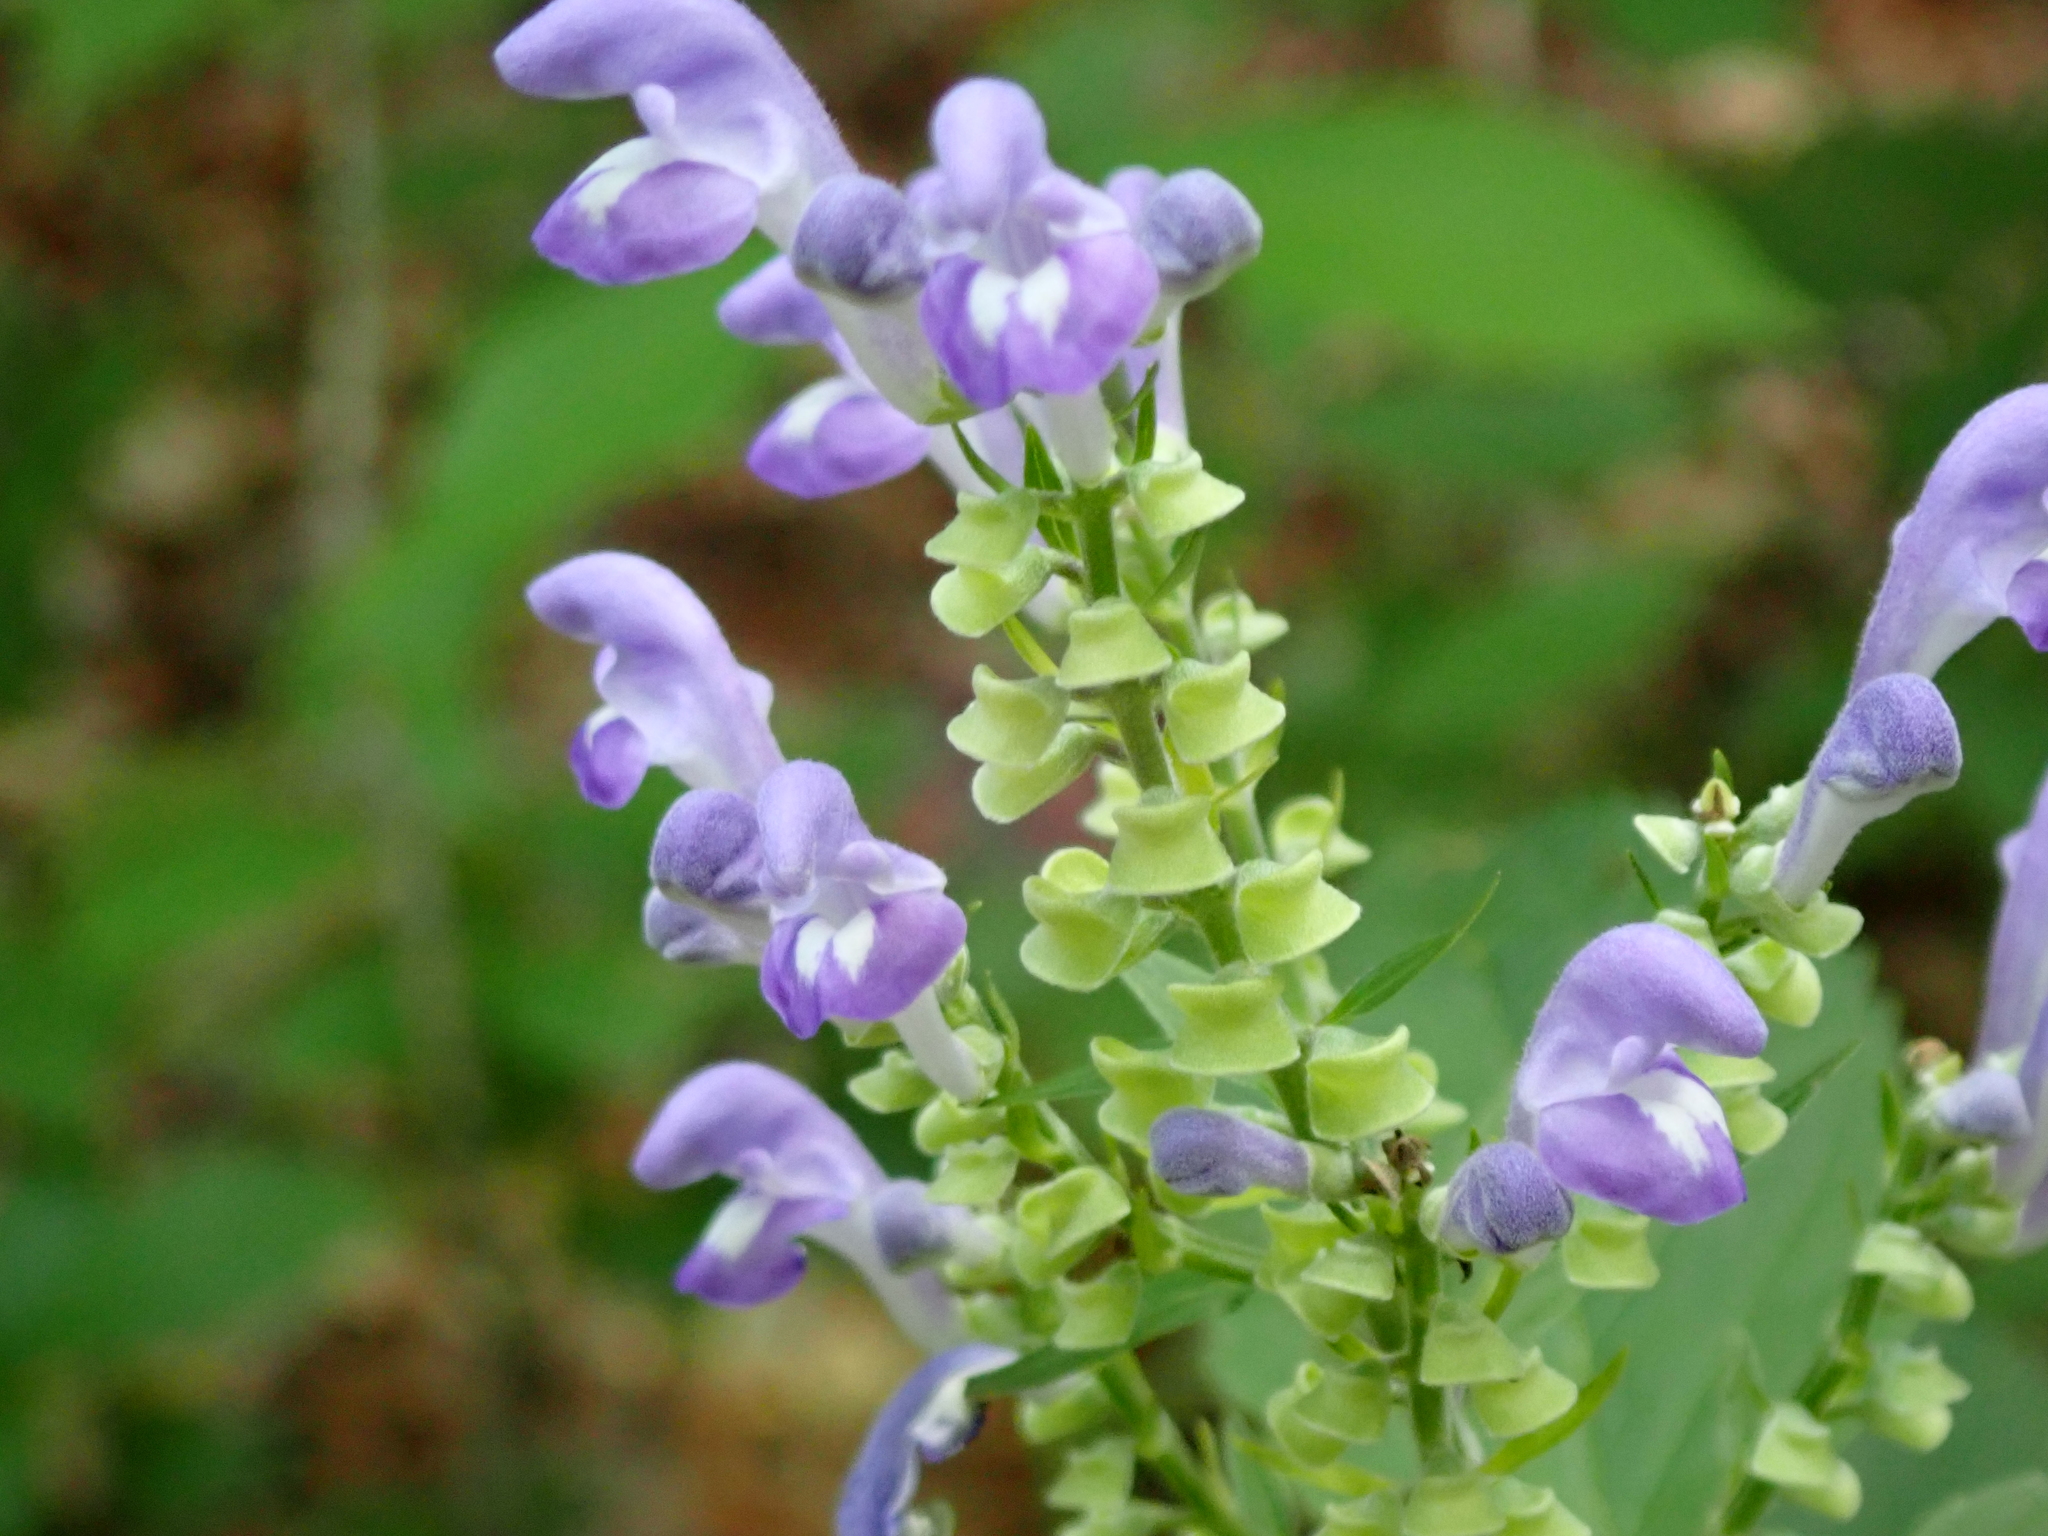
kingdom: Plantae
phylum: Tracheophyta
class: Magnoliopsida
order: Lamiales
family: Lamiaceae
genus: Scutellaria
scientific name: Scutellaria incana
